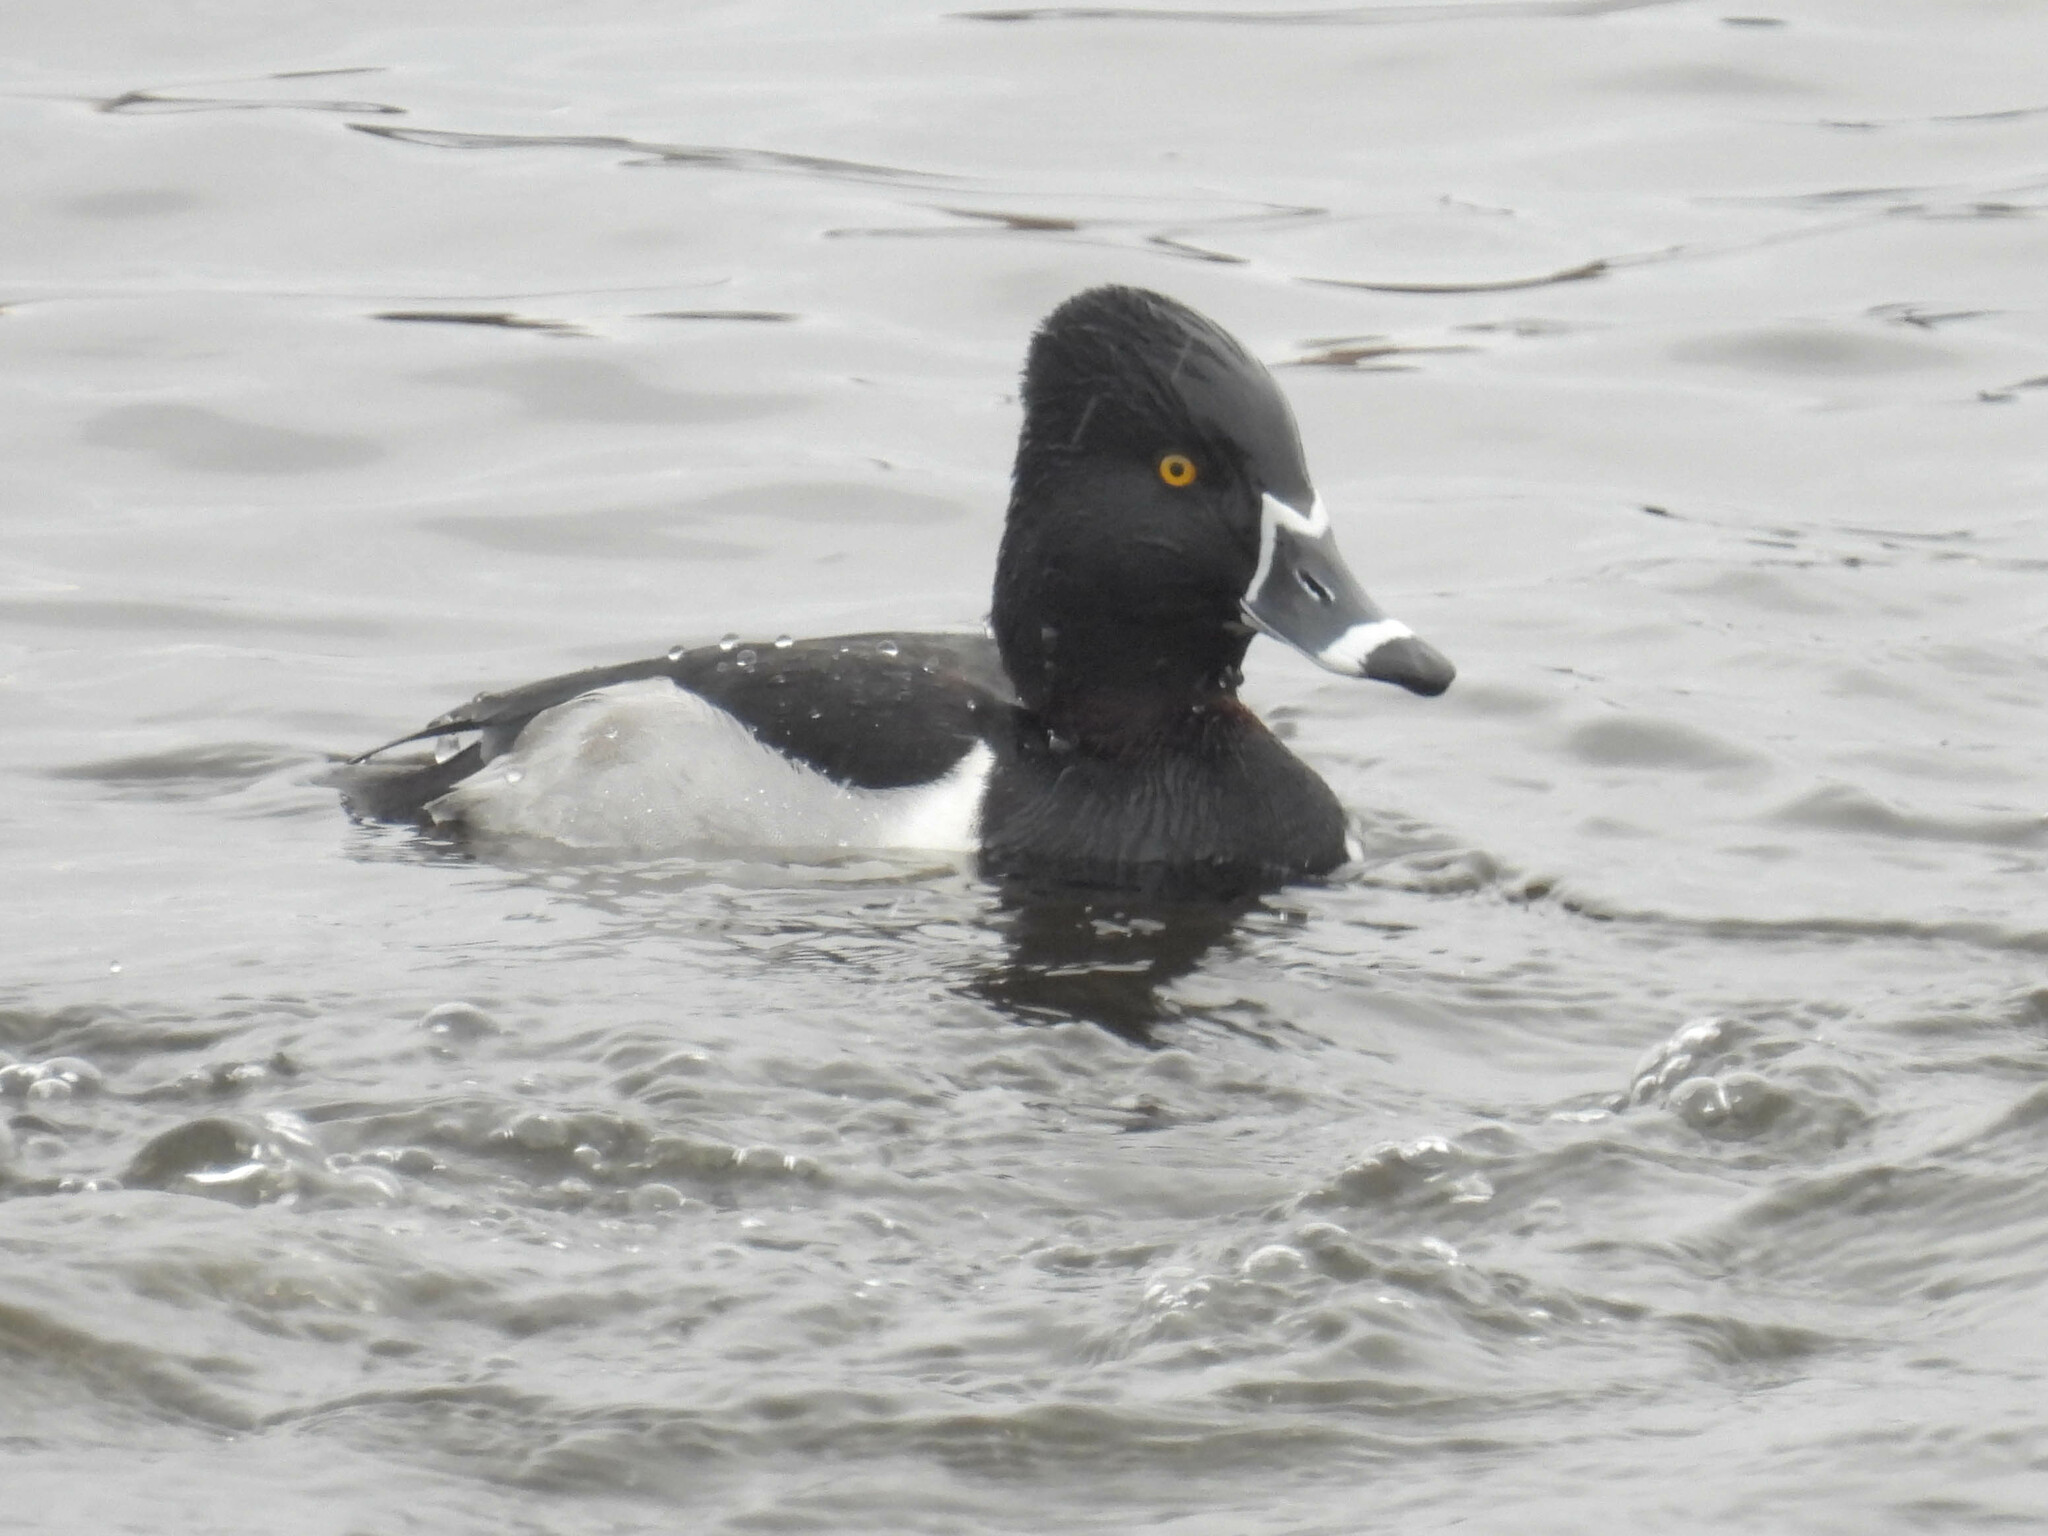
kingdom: Animalia
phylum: Chordata
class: Aves
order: Anseriformes
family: Anatidae
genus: Aythya
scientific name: Aythya collaris
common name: Ring-necked duck
